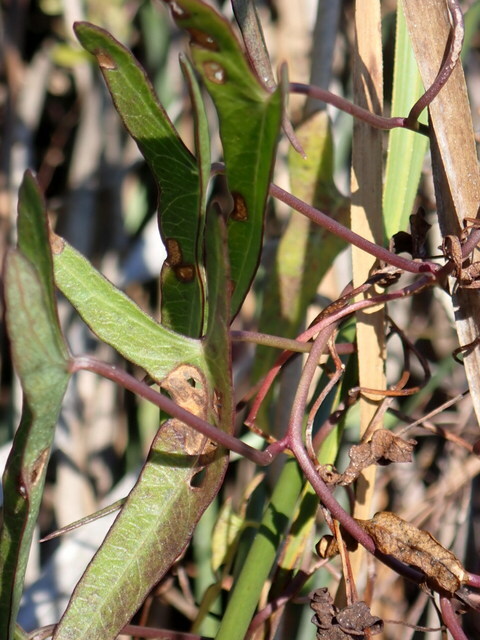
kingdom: Plantae
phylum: Tracheophyta
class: Magnoliopsida
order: Solanales
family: Convolvulaceae
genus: Ipomoea
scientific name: Ipomoea sagittata
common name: Saltmarsh morning glory
